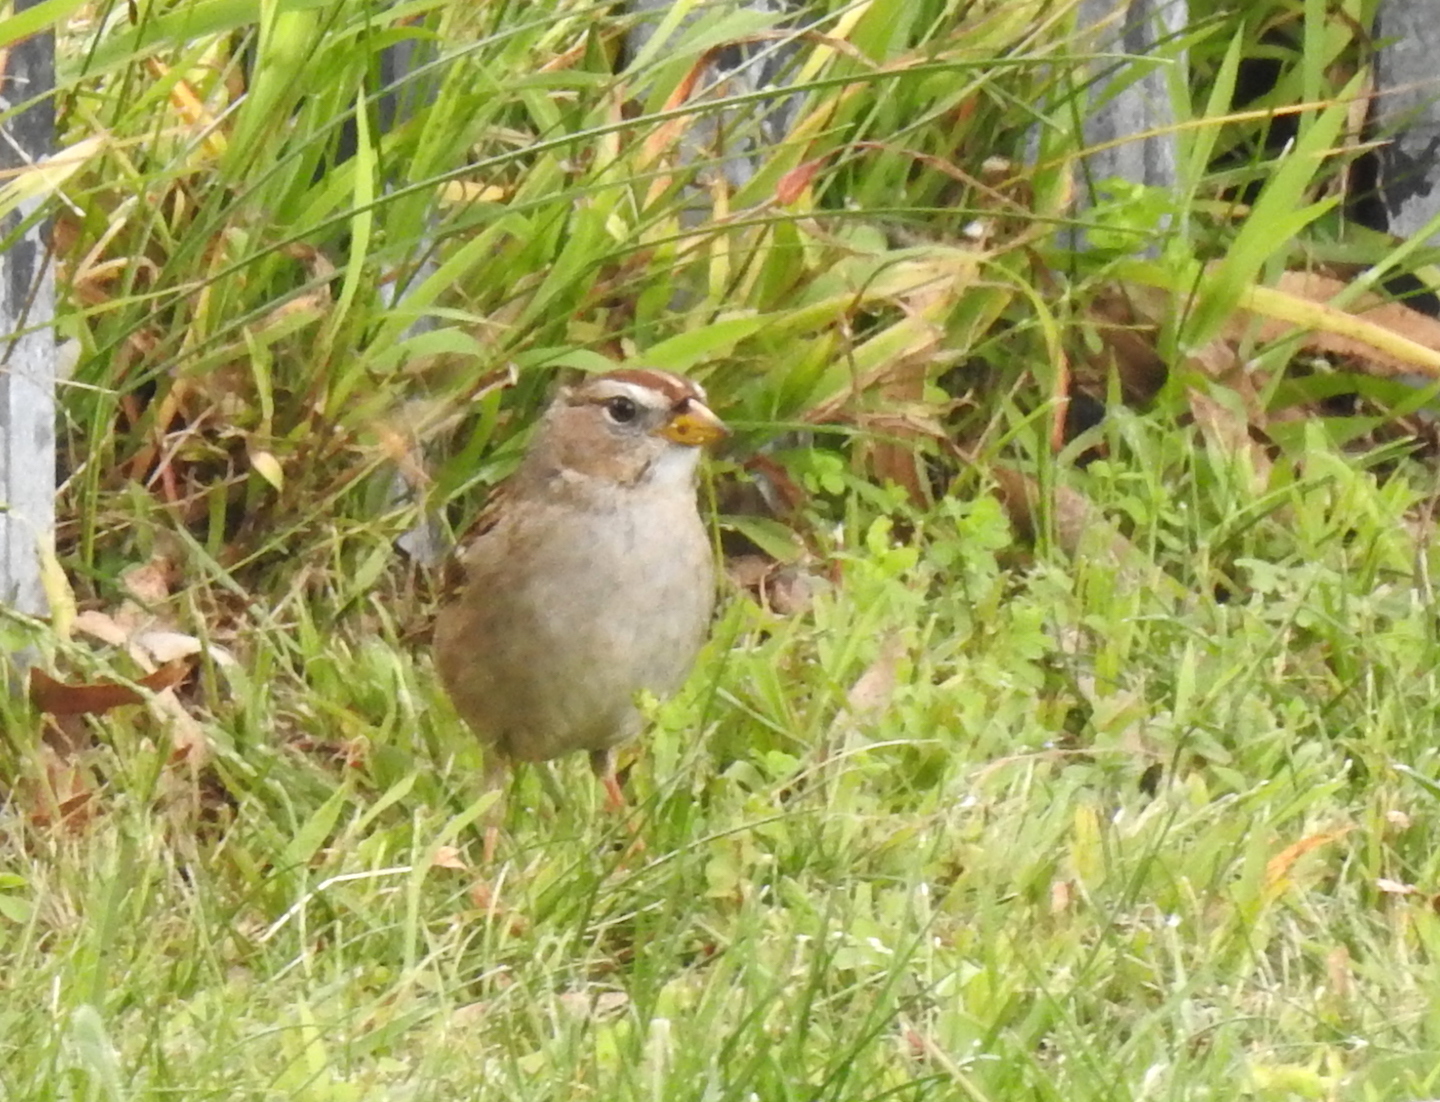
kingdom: Animalia
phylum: Chordata
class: Aves
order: Passeriformes
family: Passerellidae
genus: Zonotrichia
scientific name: Zonotrichia leucophrys
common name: White-crowned sparrow
